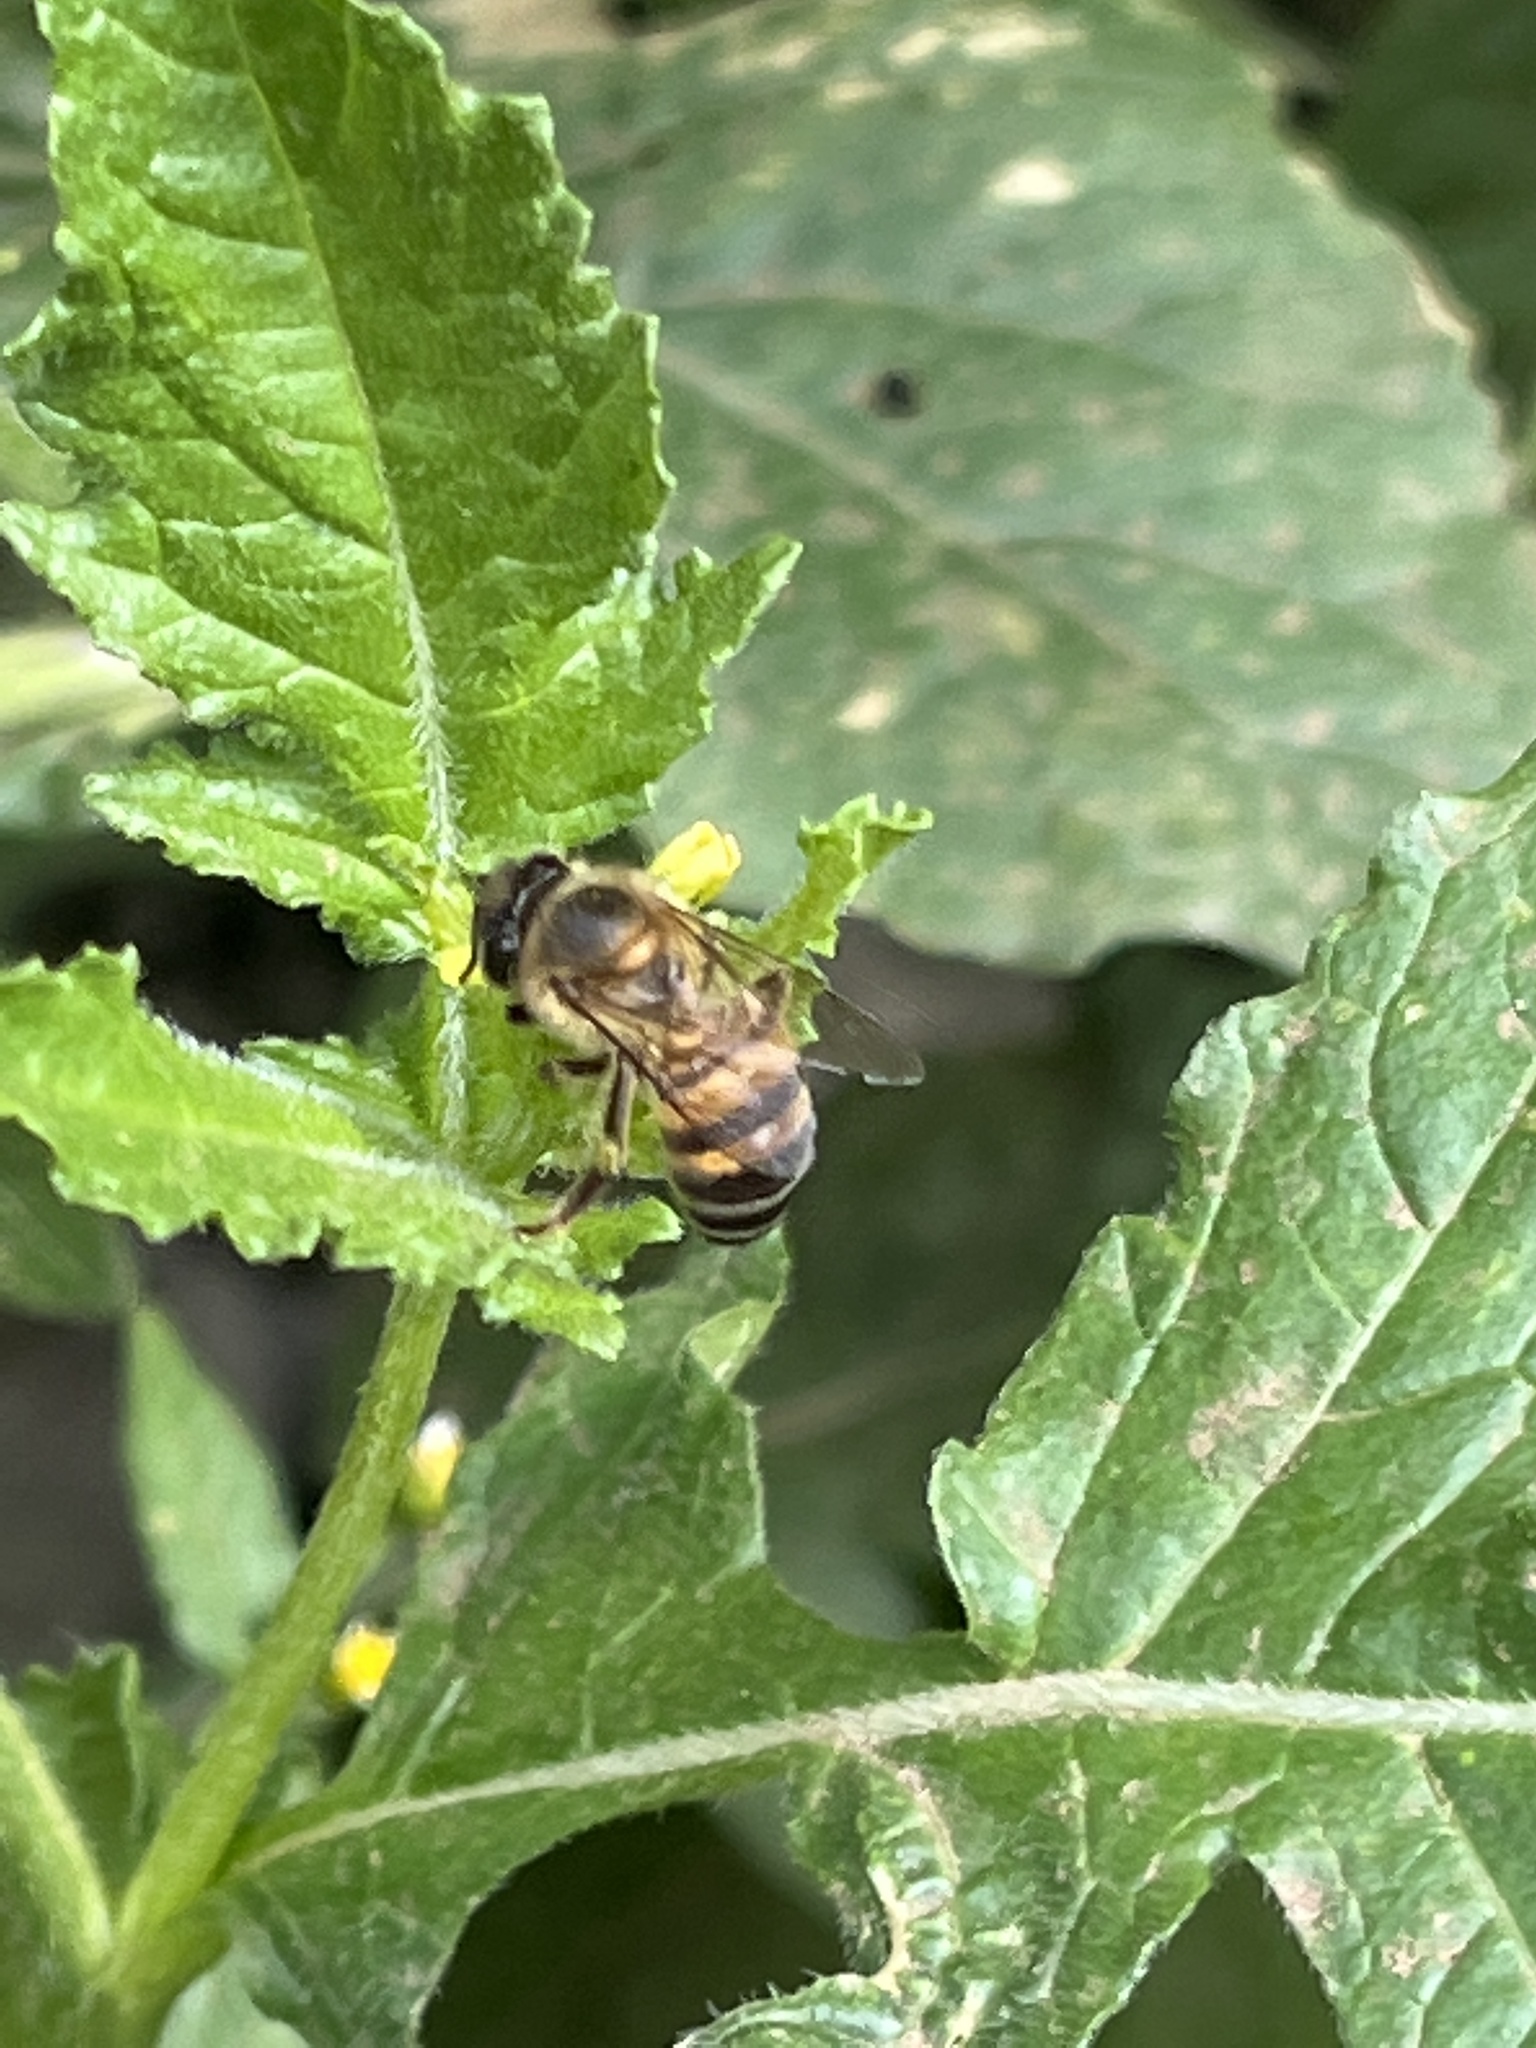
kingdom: Animalia
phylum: Arthropoda
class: Insecta
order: Hymenoptera
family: Apidae
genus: Apis
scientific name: Apis mellifera
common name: Honey bee
